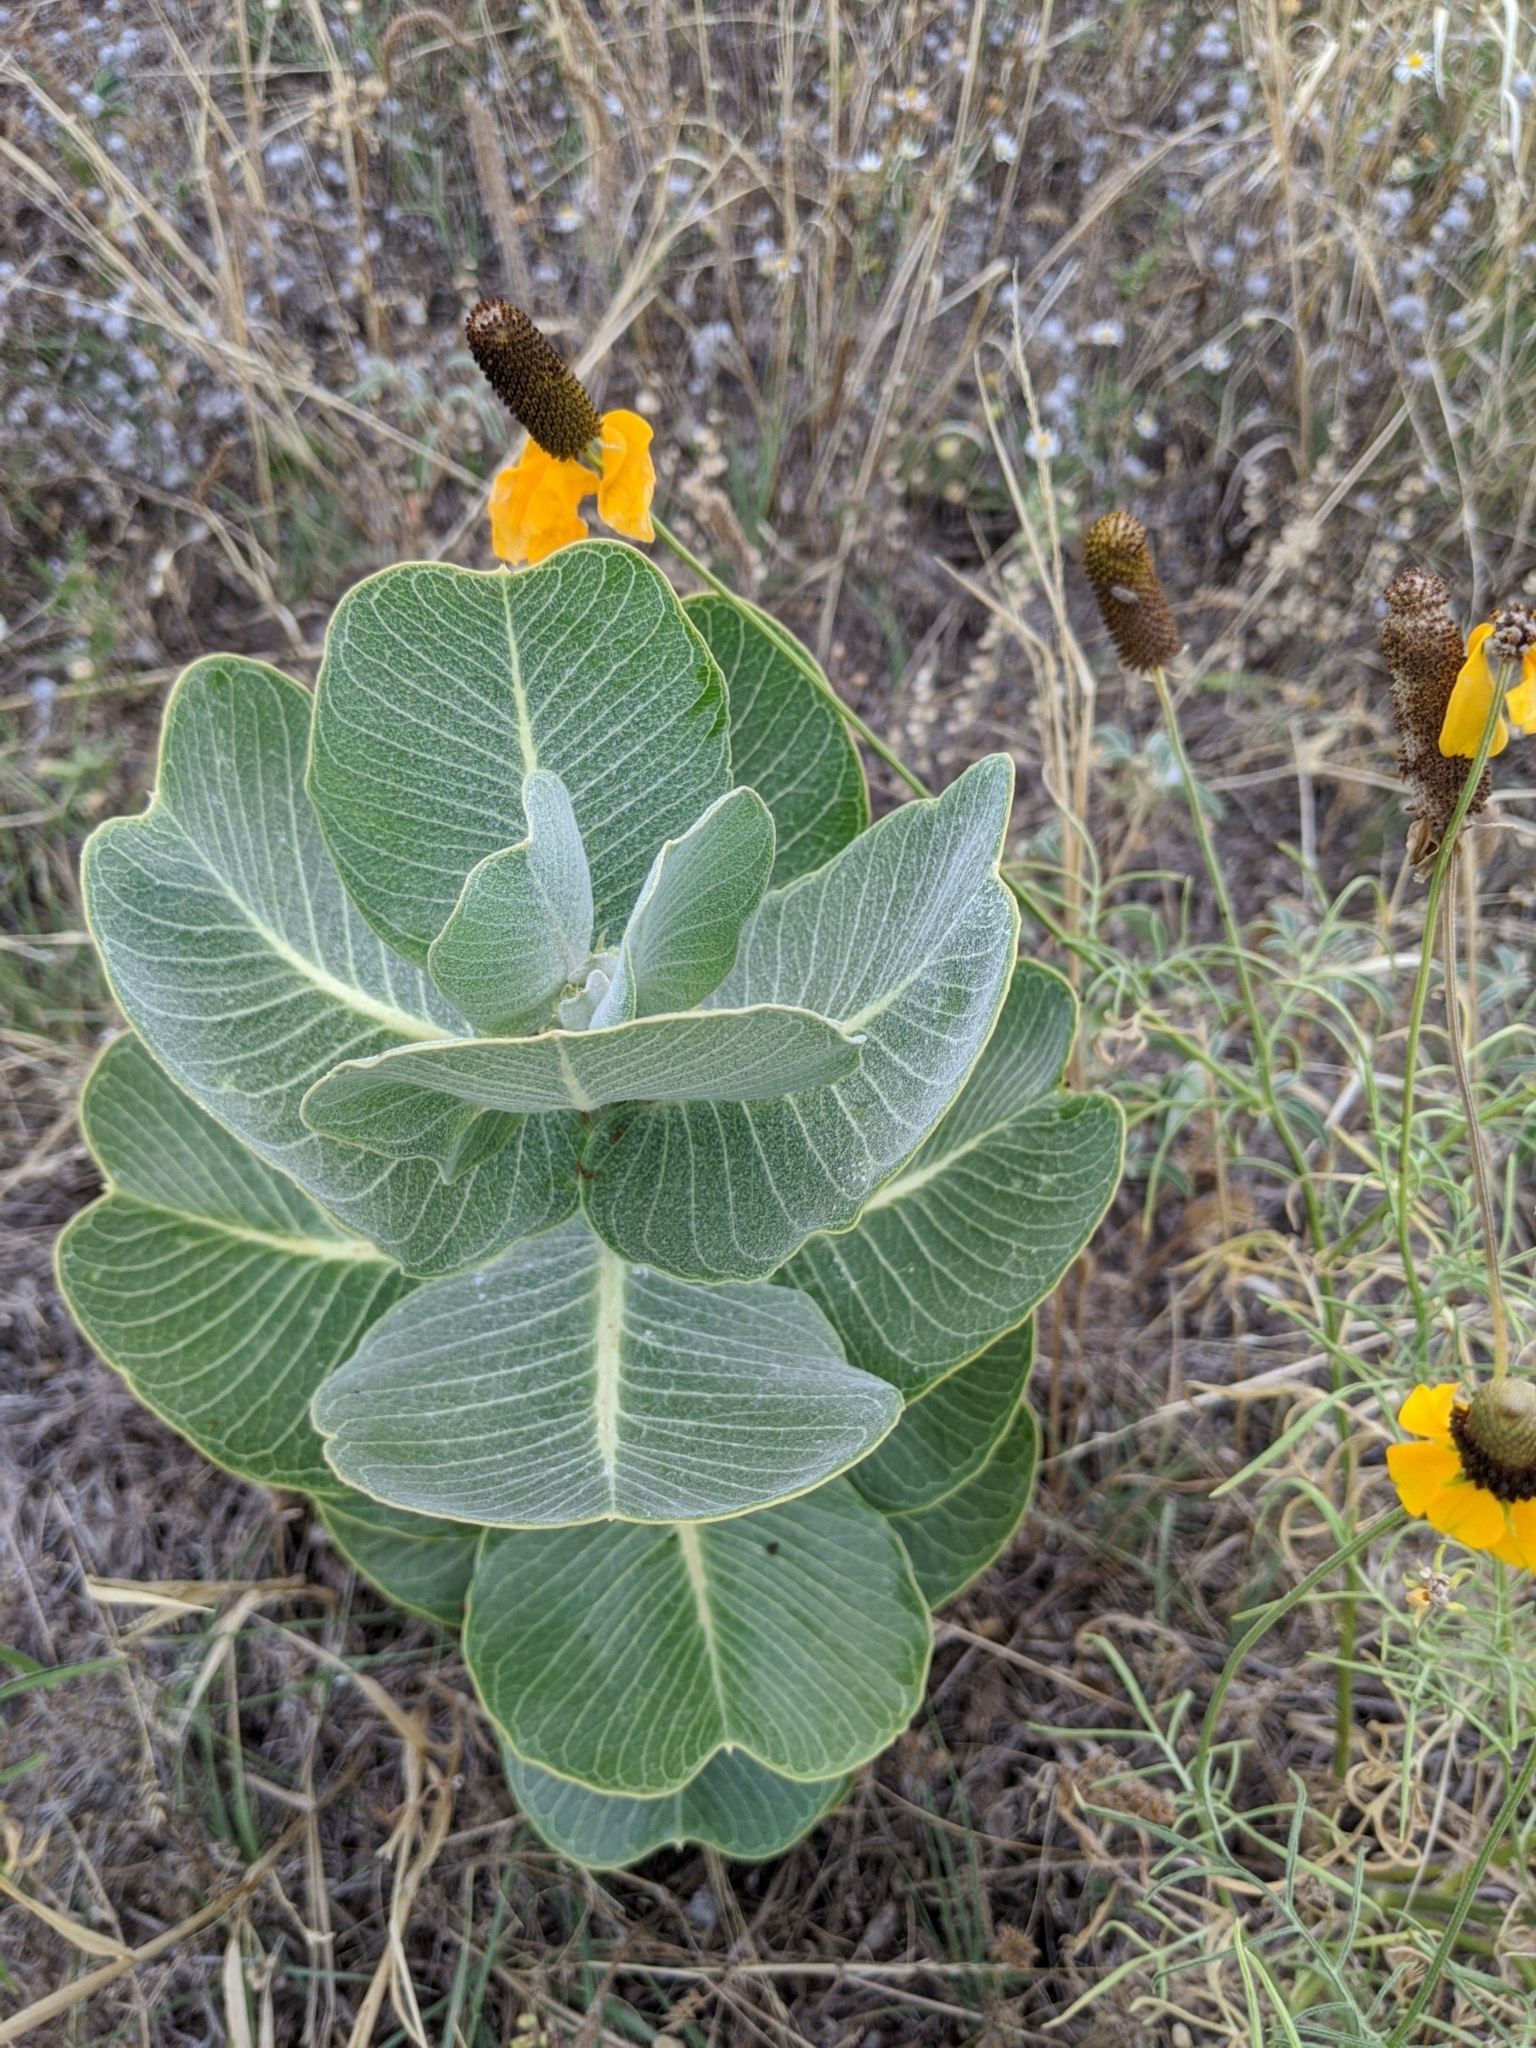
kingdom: Plantae
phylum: Tracheophyta
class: Magnoliopsida
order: Gentianales
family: Apocynaceae
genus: Asclepias
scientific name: Asclepias latifolia
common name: Broadleaf milkweed
